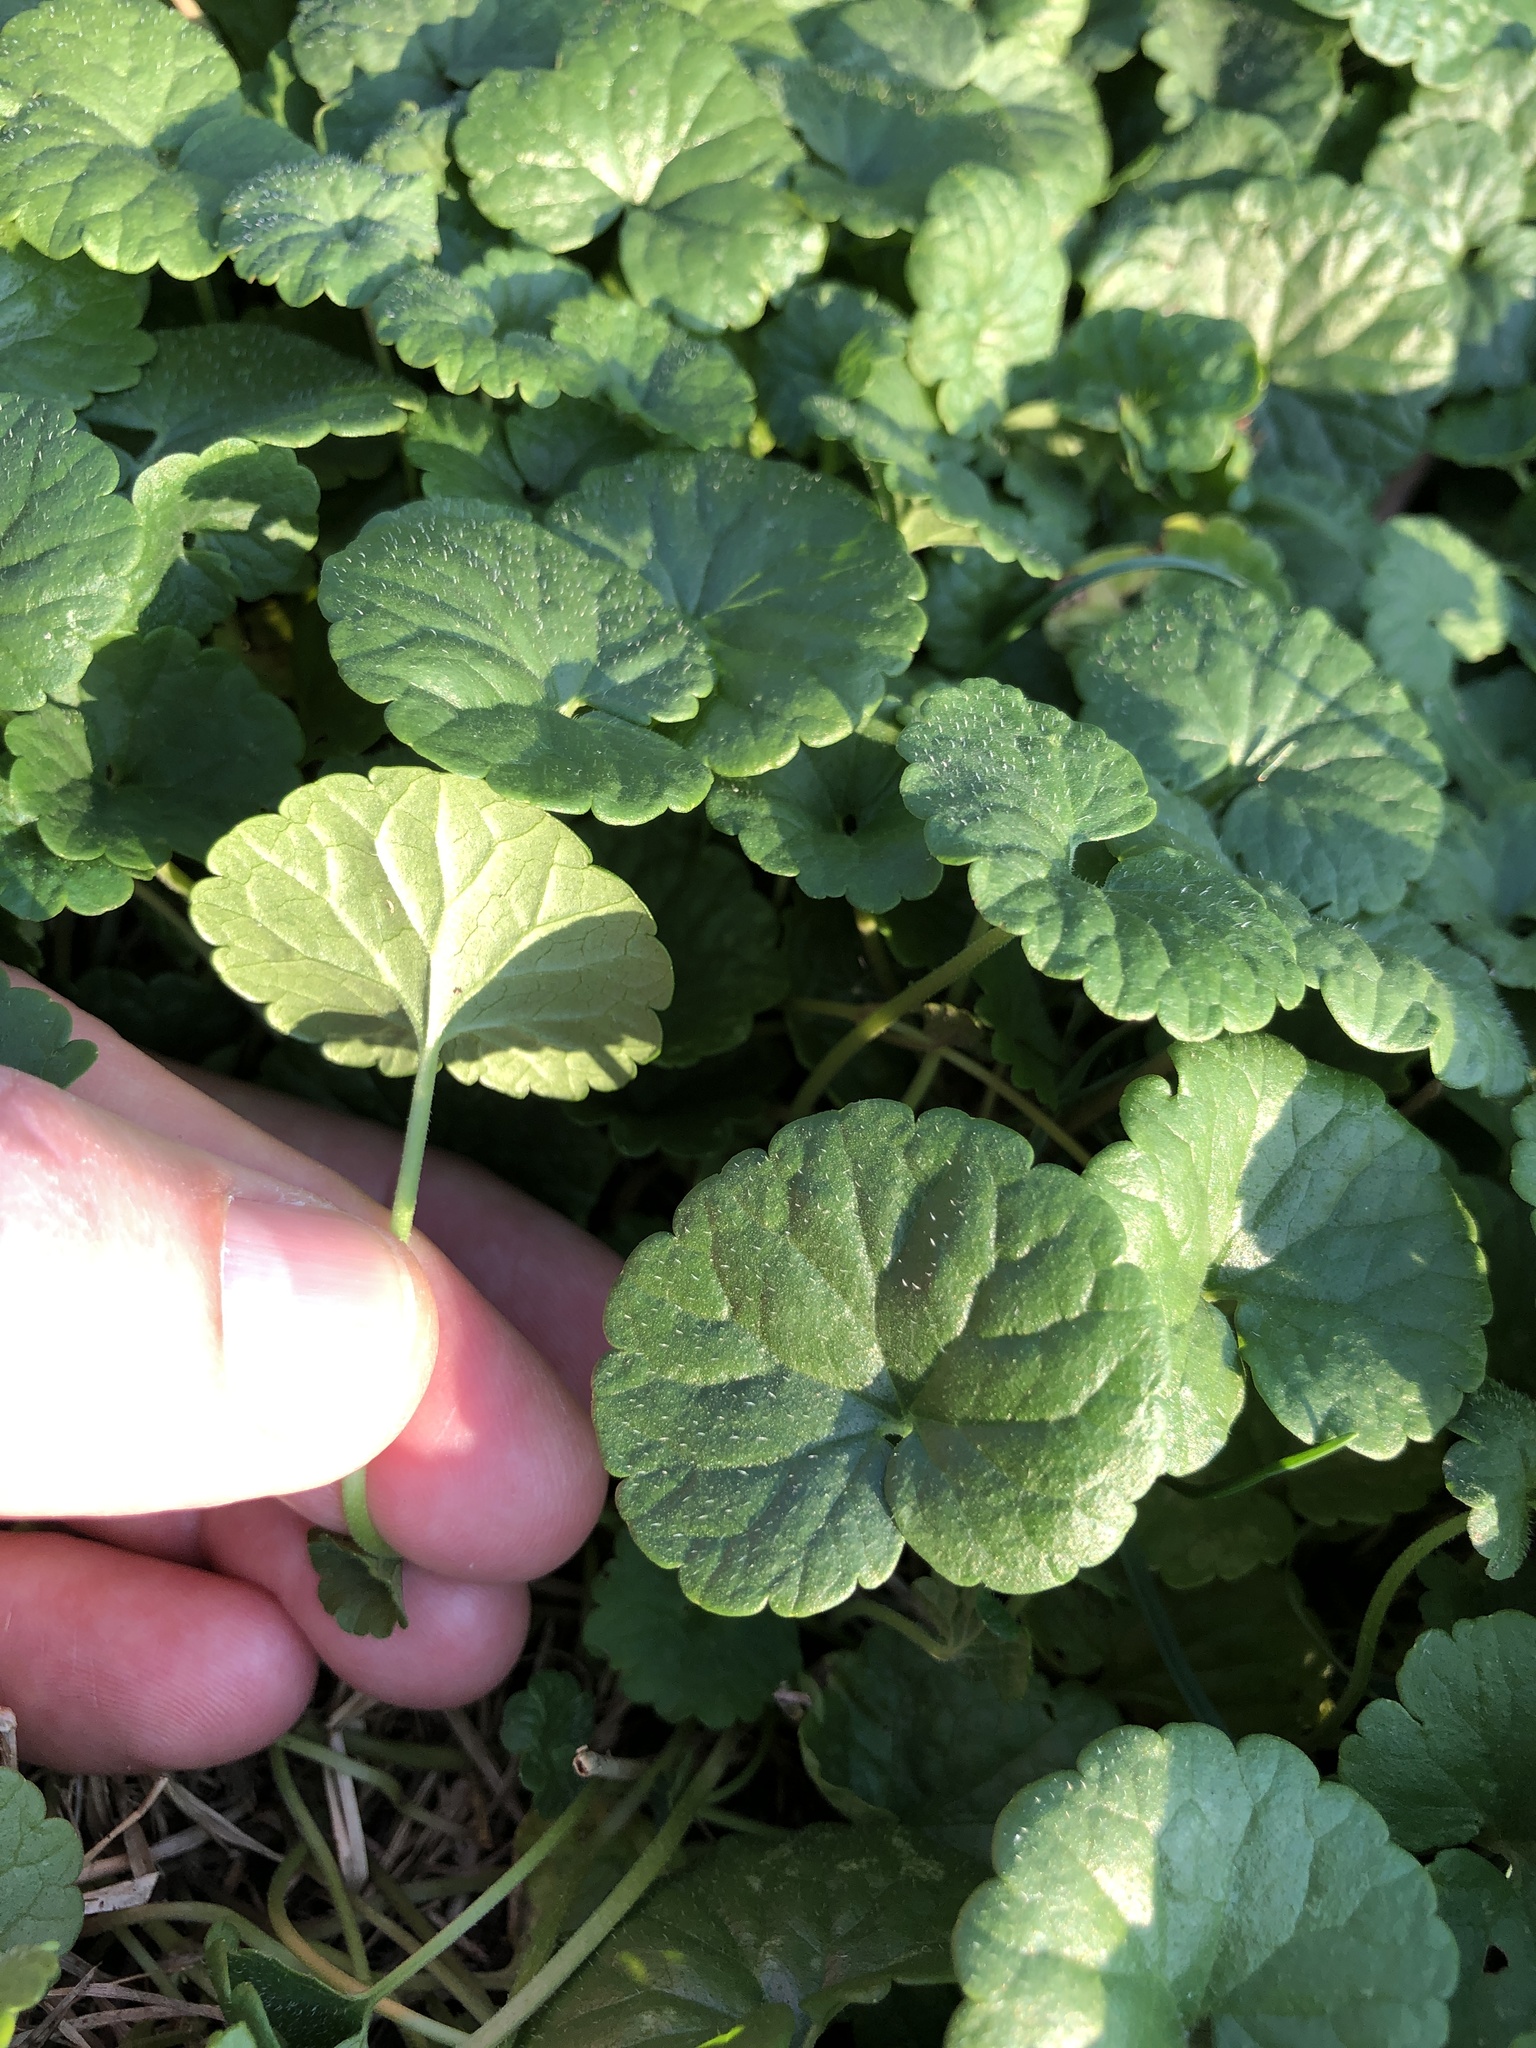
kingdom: Plantae
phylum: Tracheophyta
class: Magnoliopsida
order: Lamiales
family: Lamiaceae
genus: Glechoma
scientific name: Glechoma hederacea
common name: Ground ivy
